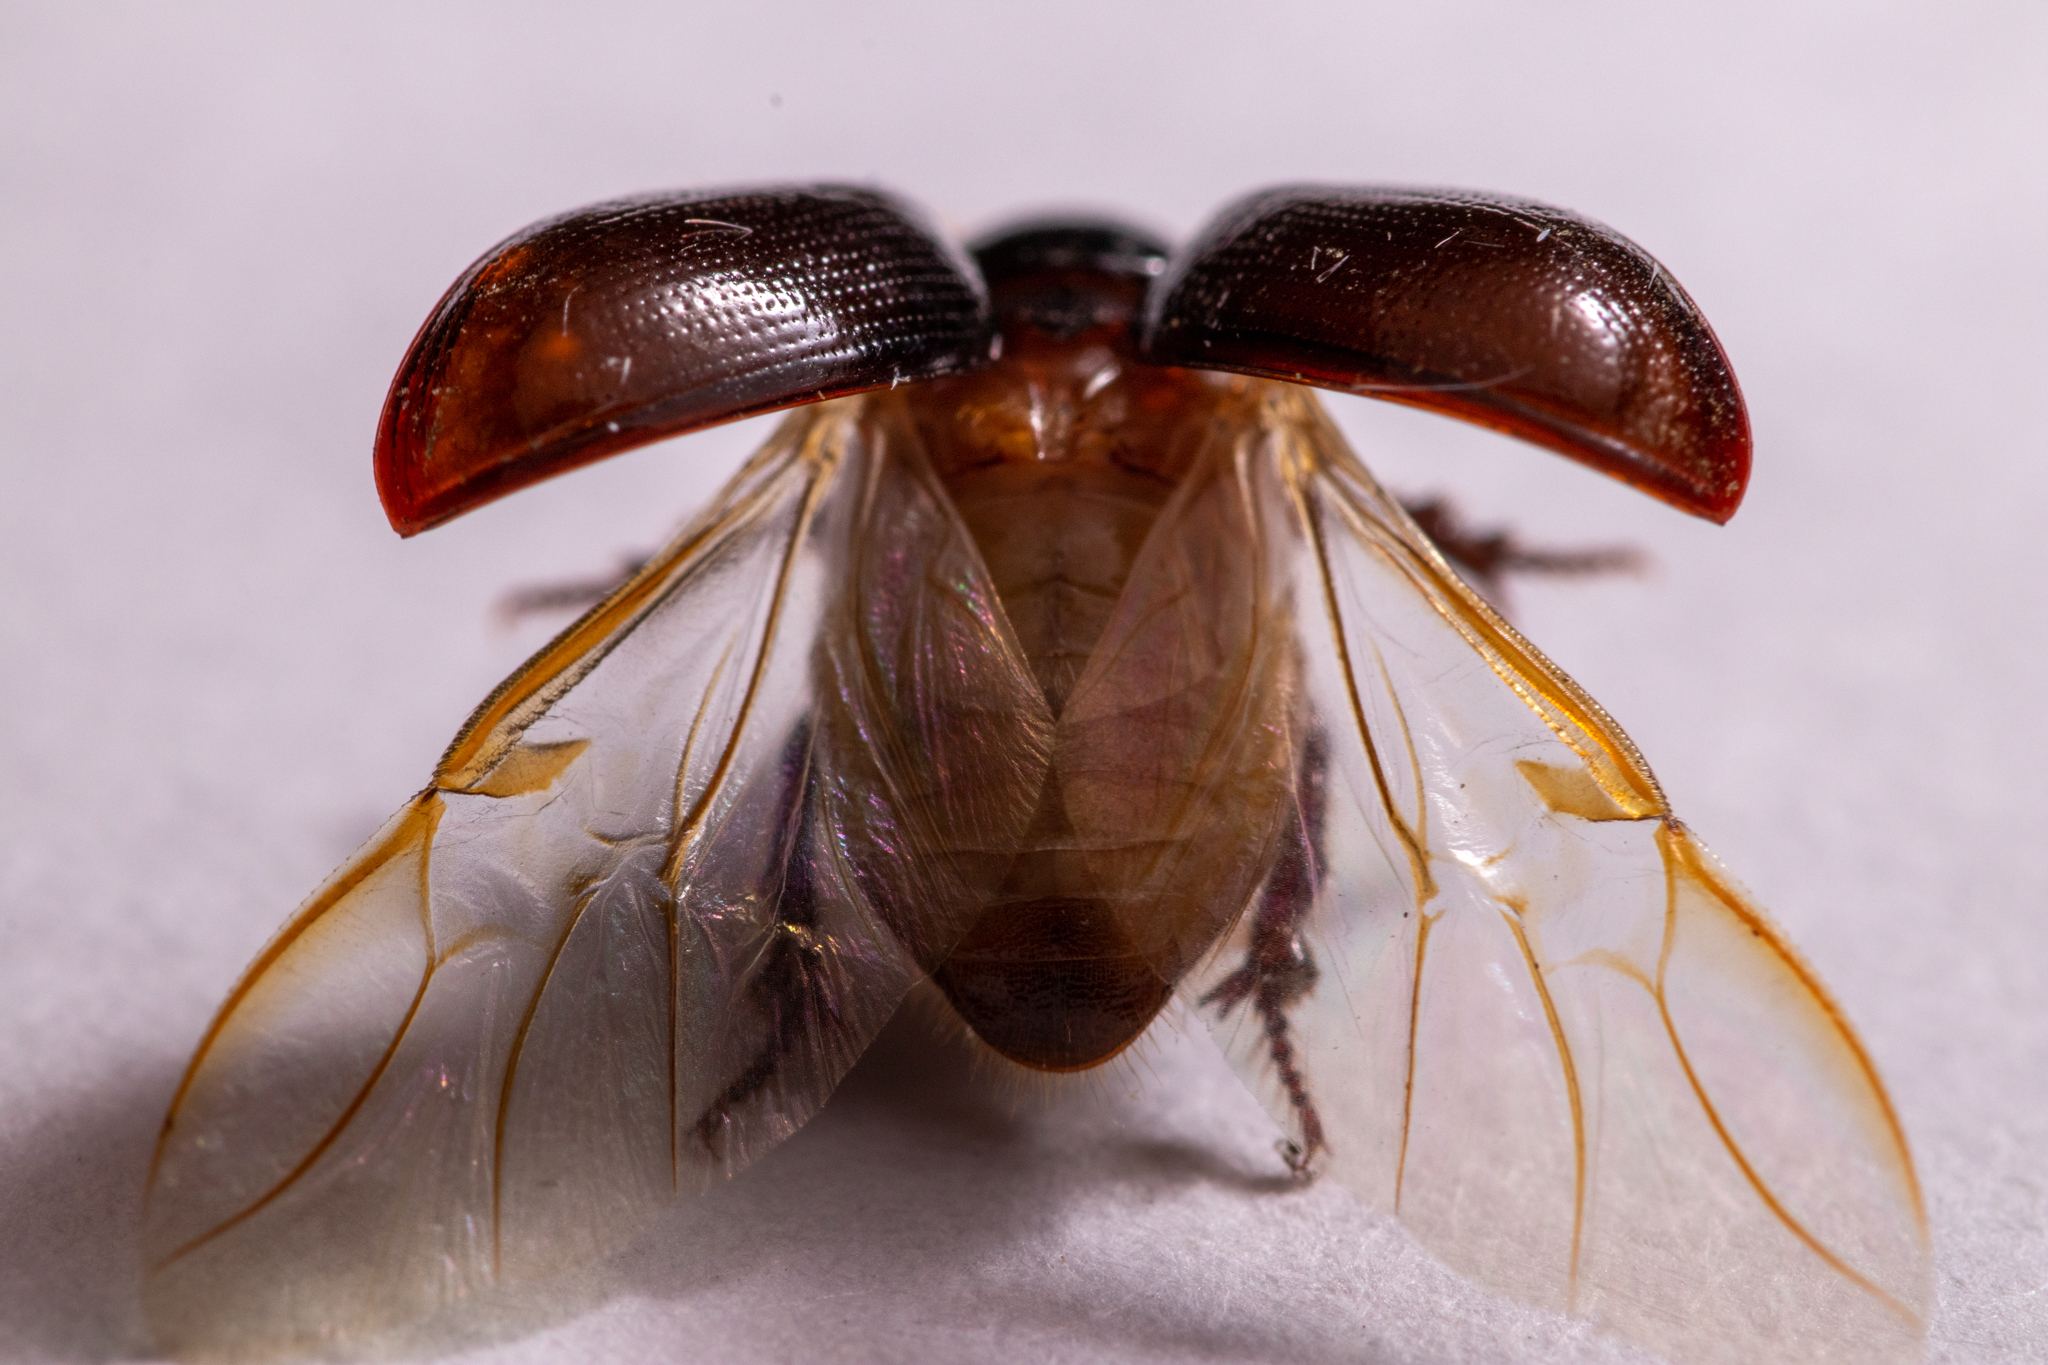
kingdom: Animalia
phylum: Arthropoda
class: Insecta
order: Coleoptera
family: Hybosoridae
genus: Hybosorus
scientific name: Hybosorus illigeri
